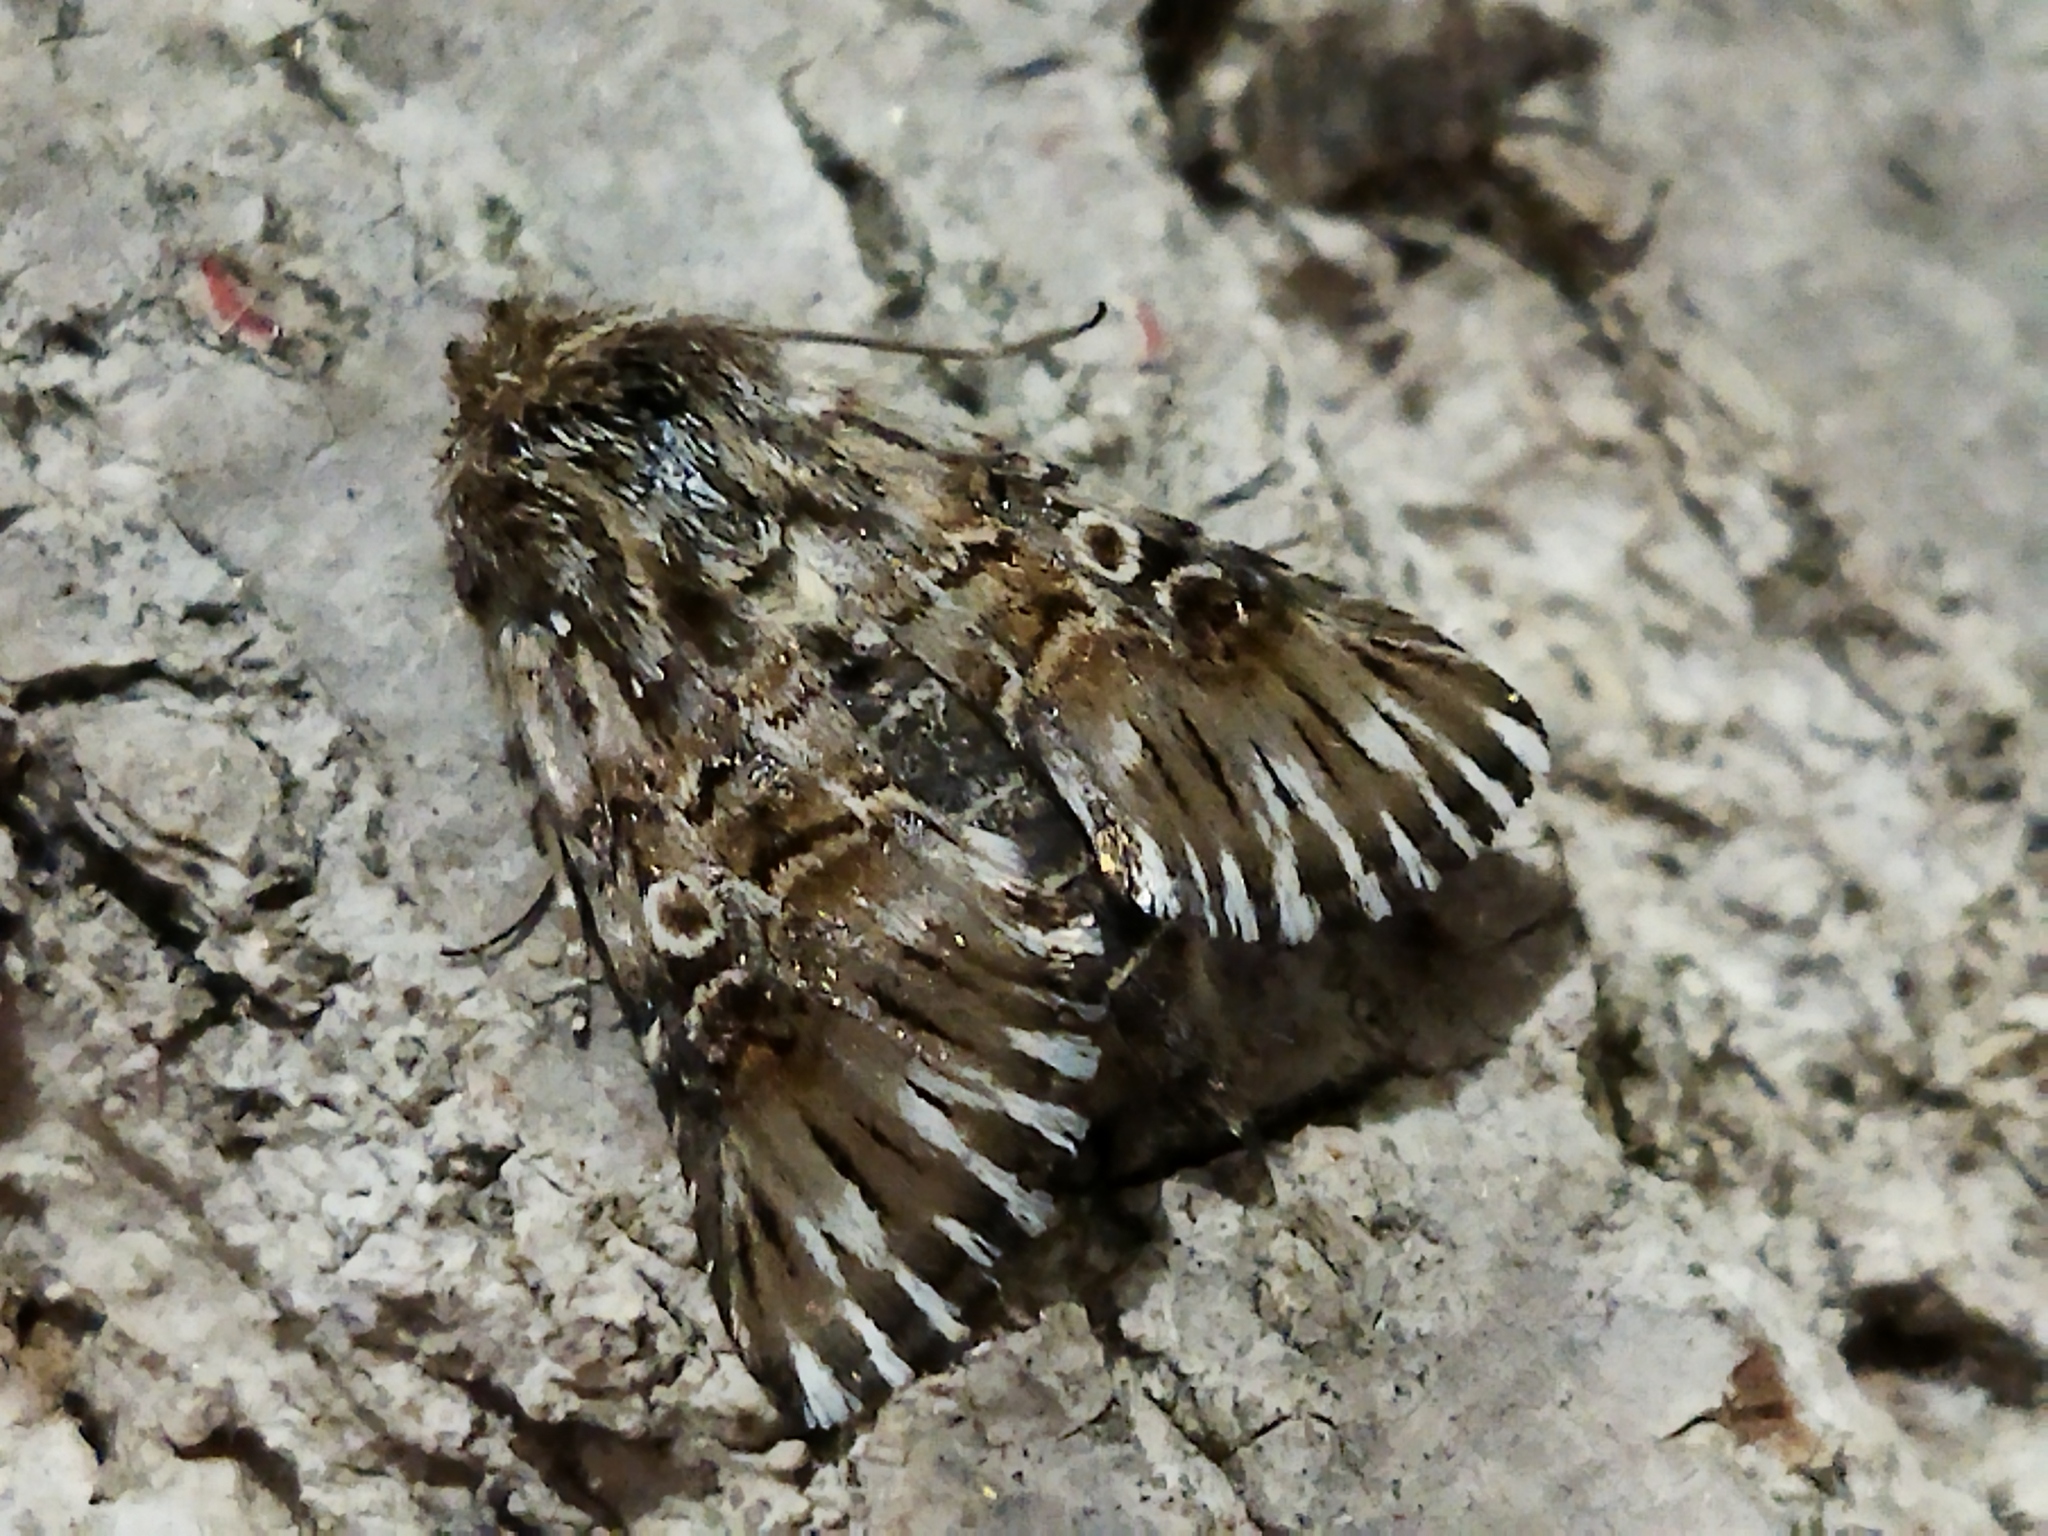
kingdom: Animalia
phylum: Arthropoda
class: Insecta
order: Lepidoptera
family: Noctuidae
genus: Omphalophana
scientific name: Omphalophana antirrhinii
